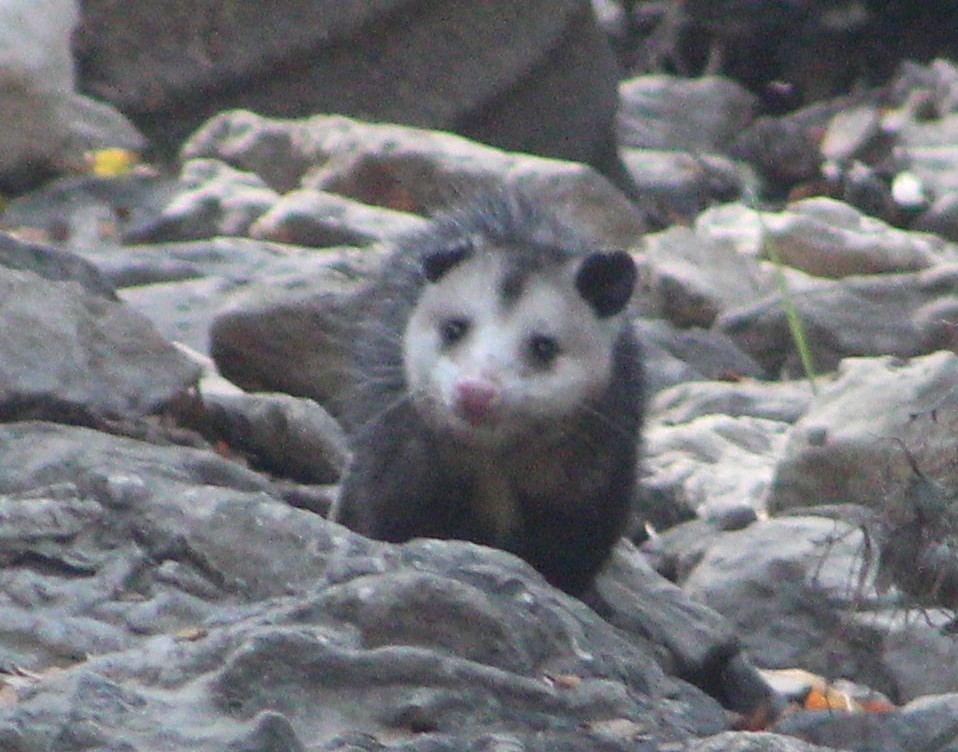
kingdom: Animalia
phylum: Chordata
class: Mammalia
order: Didelphimorphia
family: Didelphidae
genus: Didelphis
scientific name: Didelphis virginiana
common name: Virginia opossum
